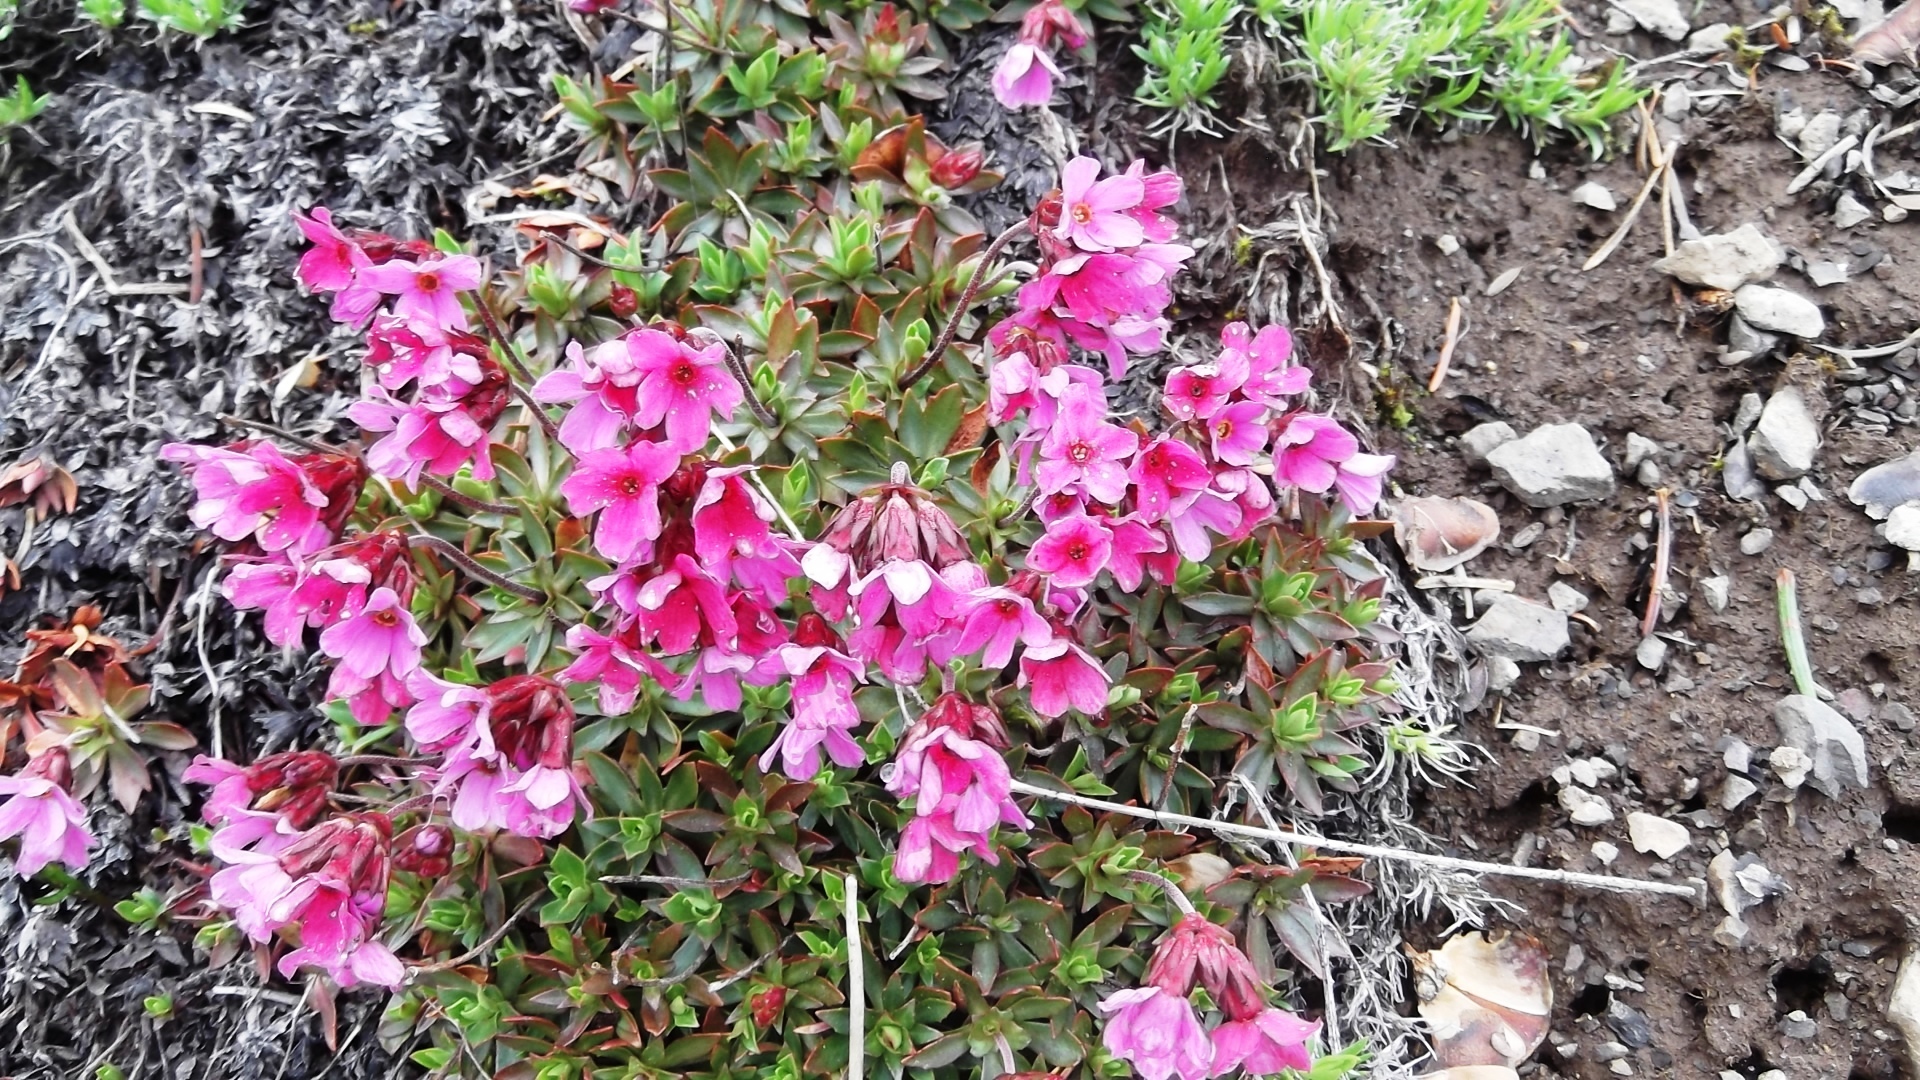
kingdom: Plantae
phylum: Tracheophyta
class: Magnoliopsida
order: Ericales
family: Primulaceae
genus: Androsace
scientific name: Androsace laevigata
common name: Cliff dwarf-primrose
